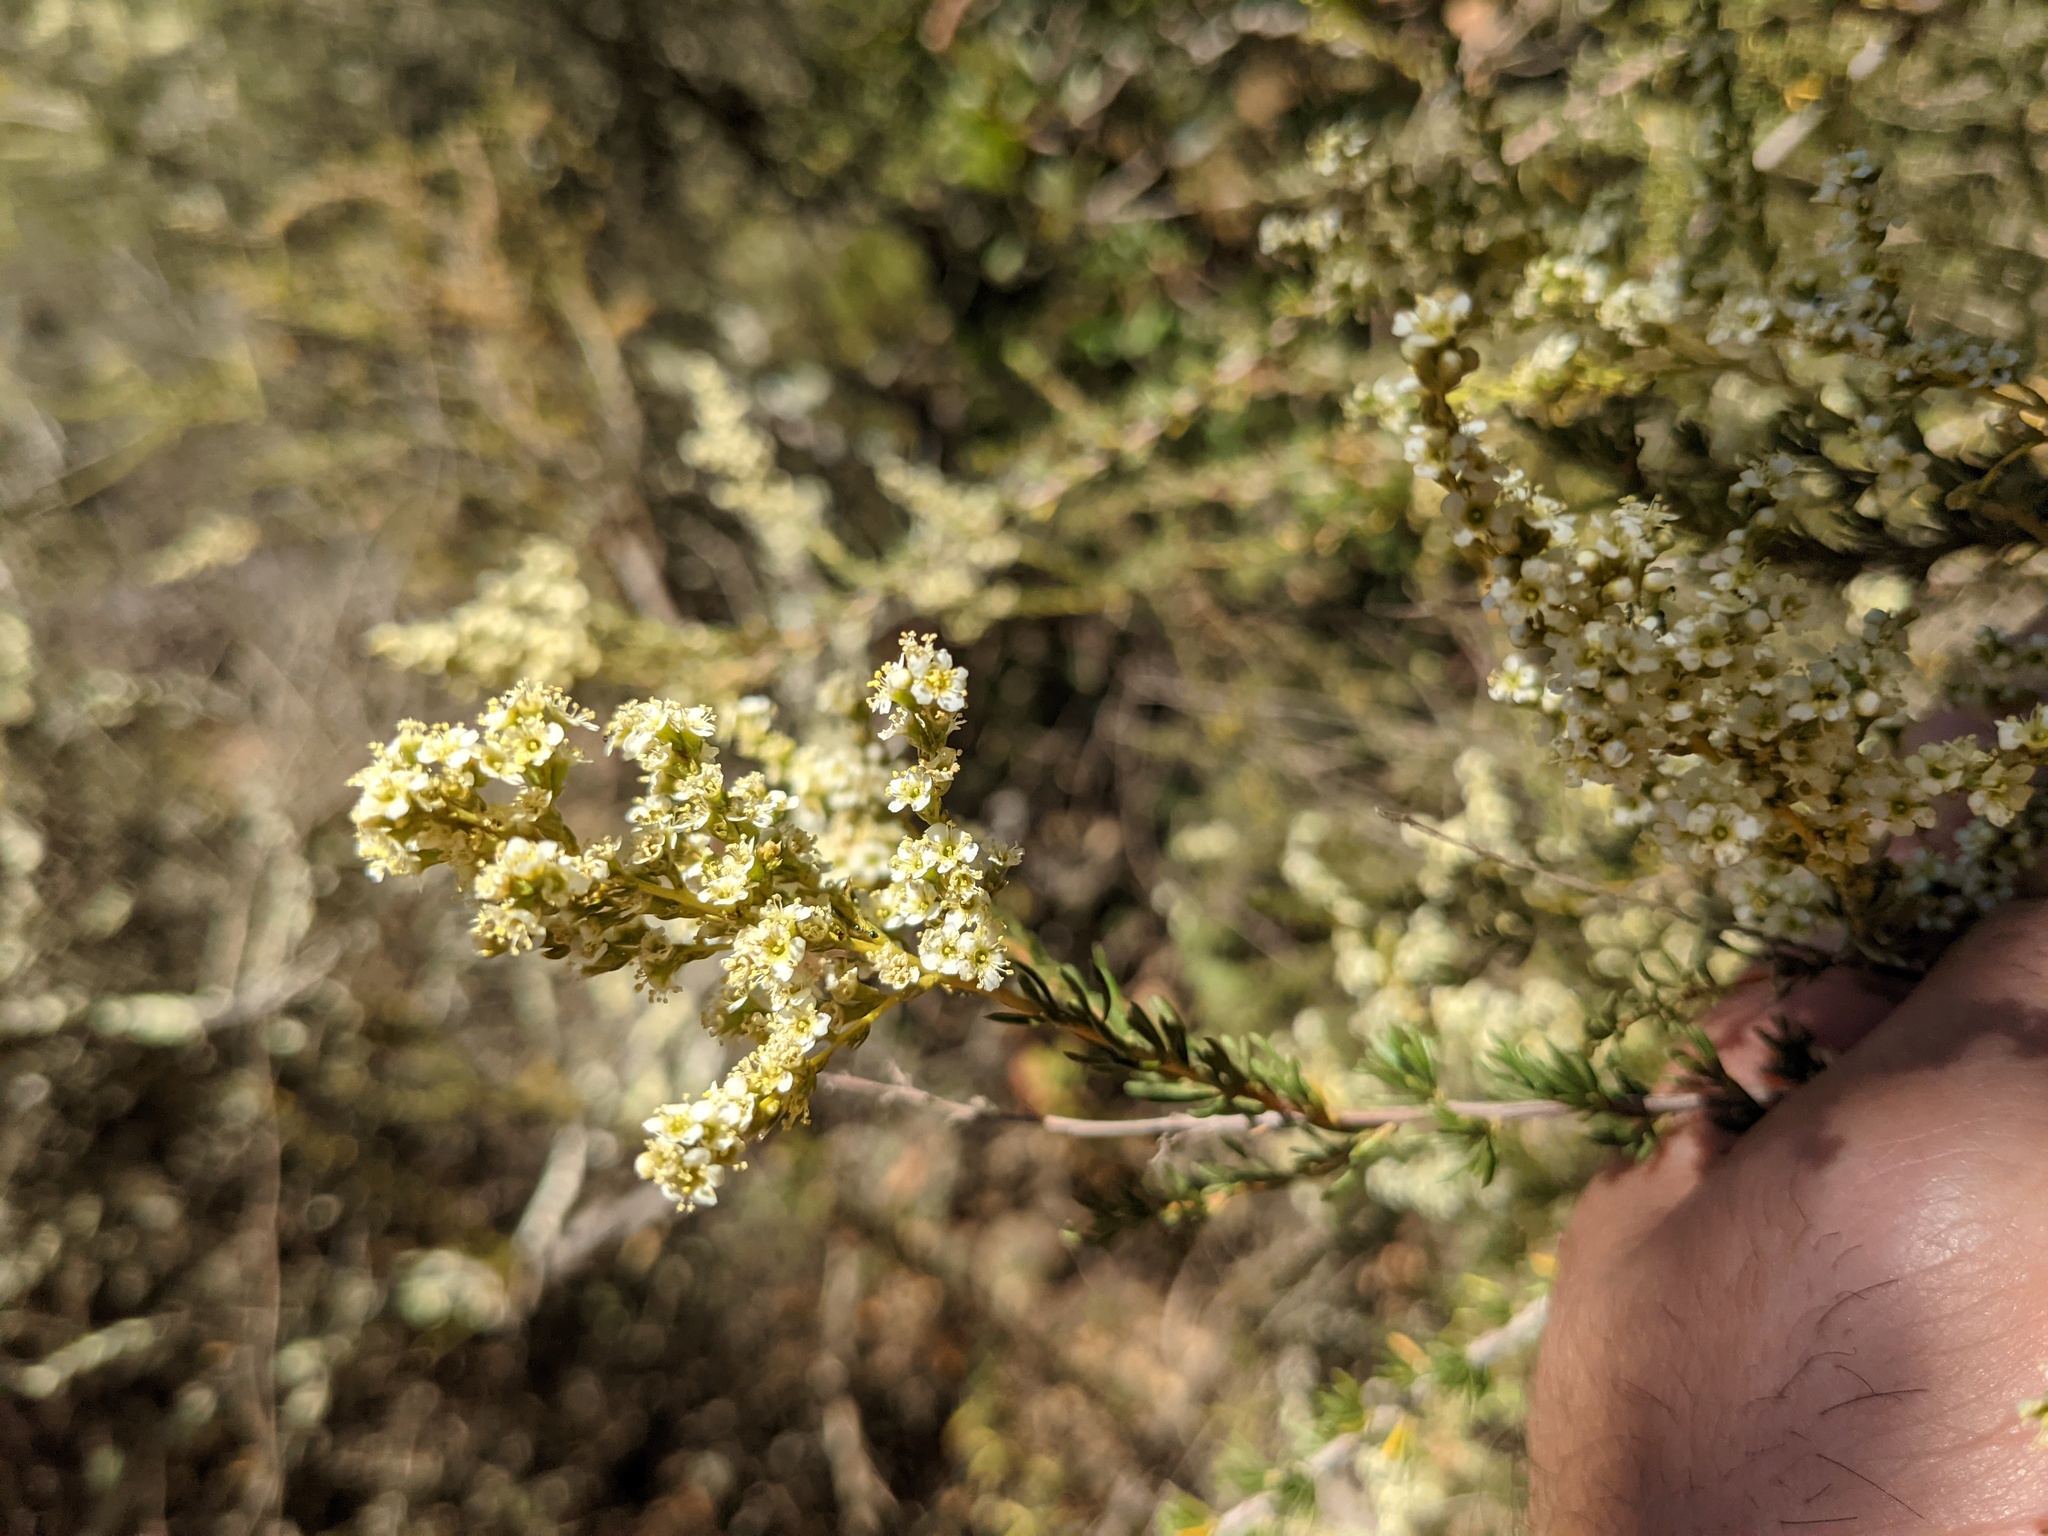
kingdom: Plantae
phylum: Tracheophyta
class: Magnoliopsida
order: Rosales
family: Rosaceae
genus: Adenostoma
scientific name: Adenostoma fasciculatum
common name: Chamise
